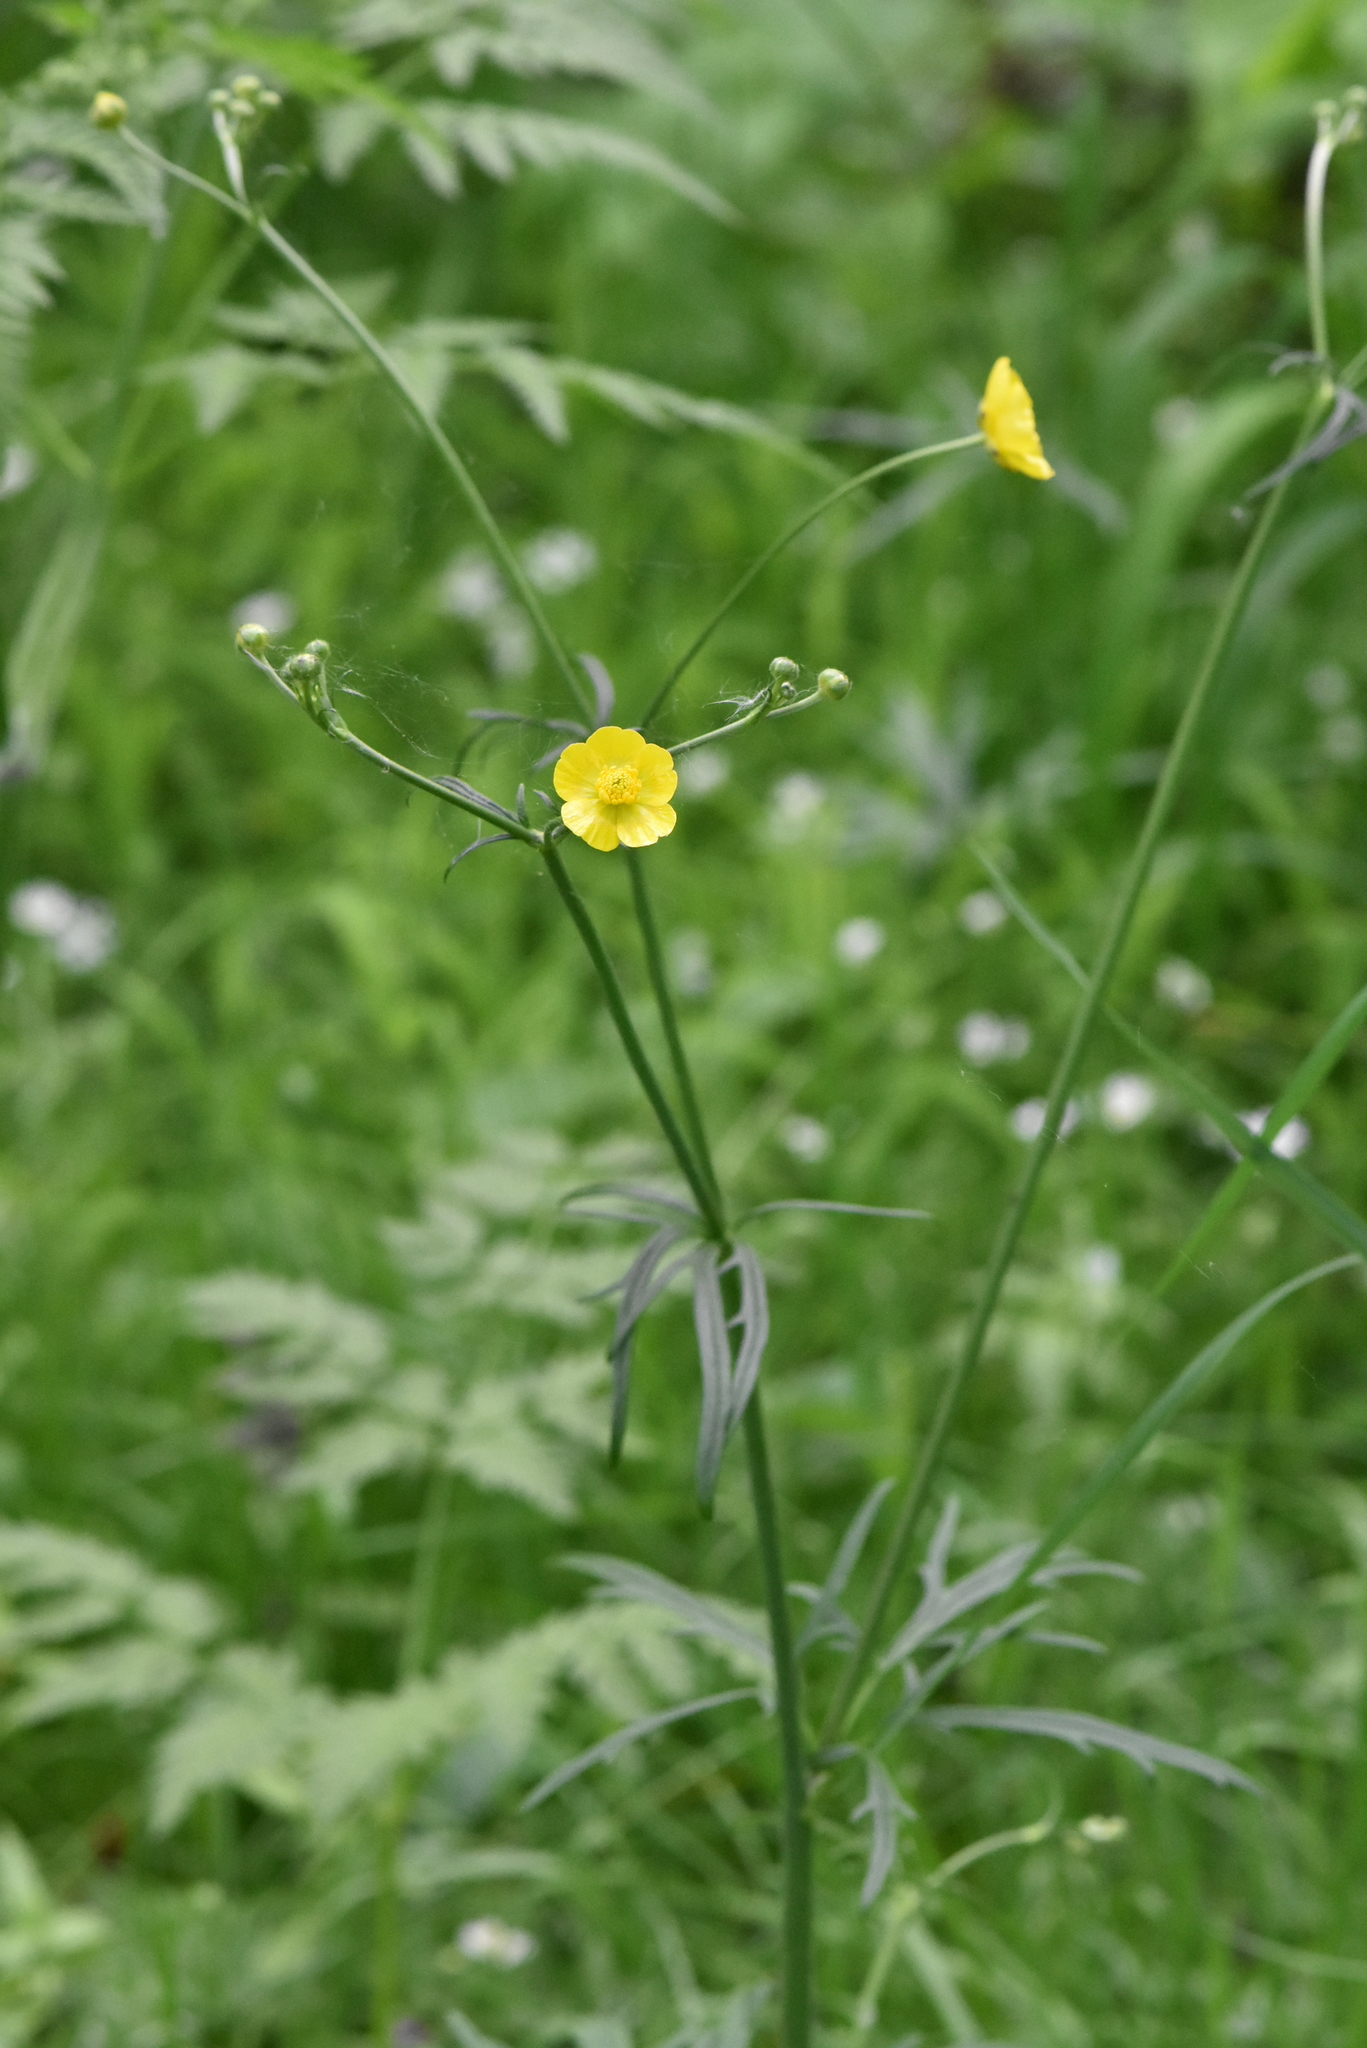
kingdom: Plantae
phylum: Tracheophyta
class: Magnoliopsida
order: Ranunculales
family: Ranunculaceae
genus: Ranunculus
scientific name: Ranunculus acris
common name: Meadow buttercup
